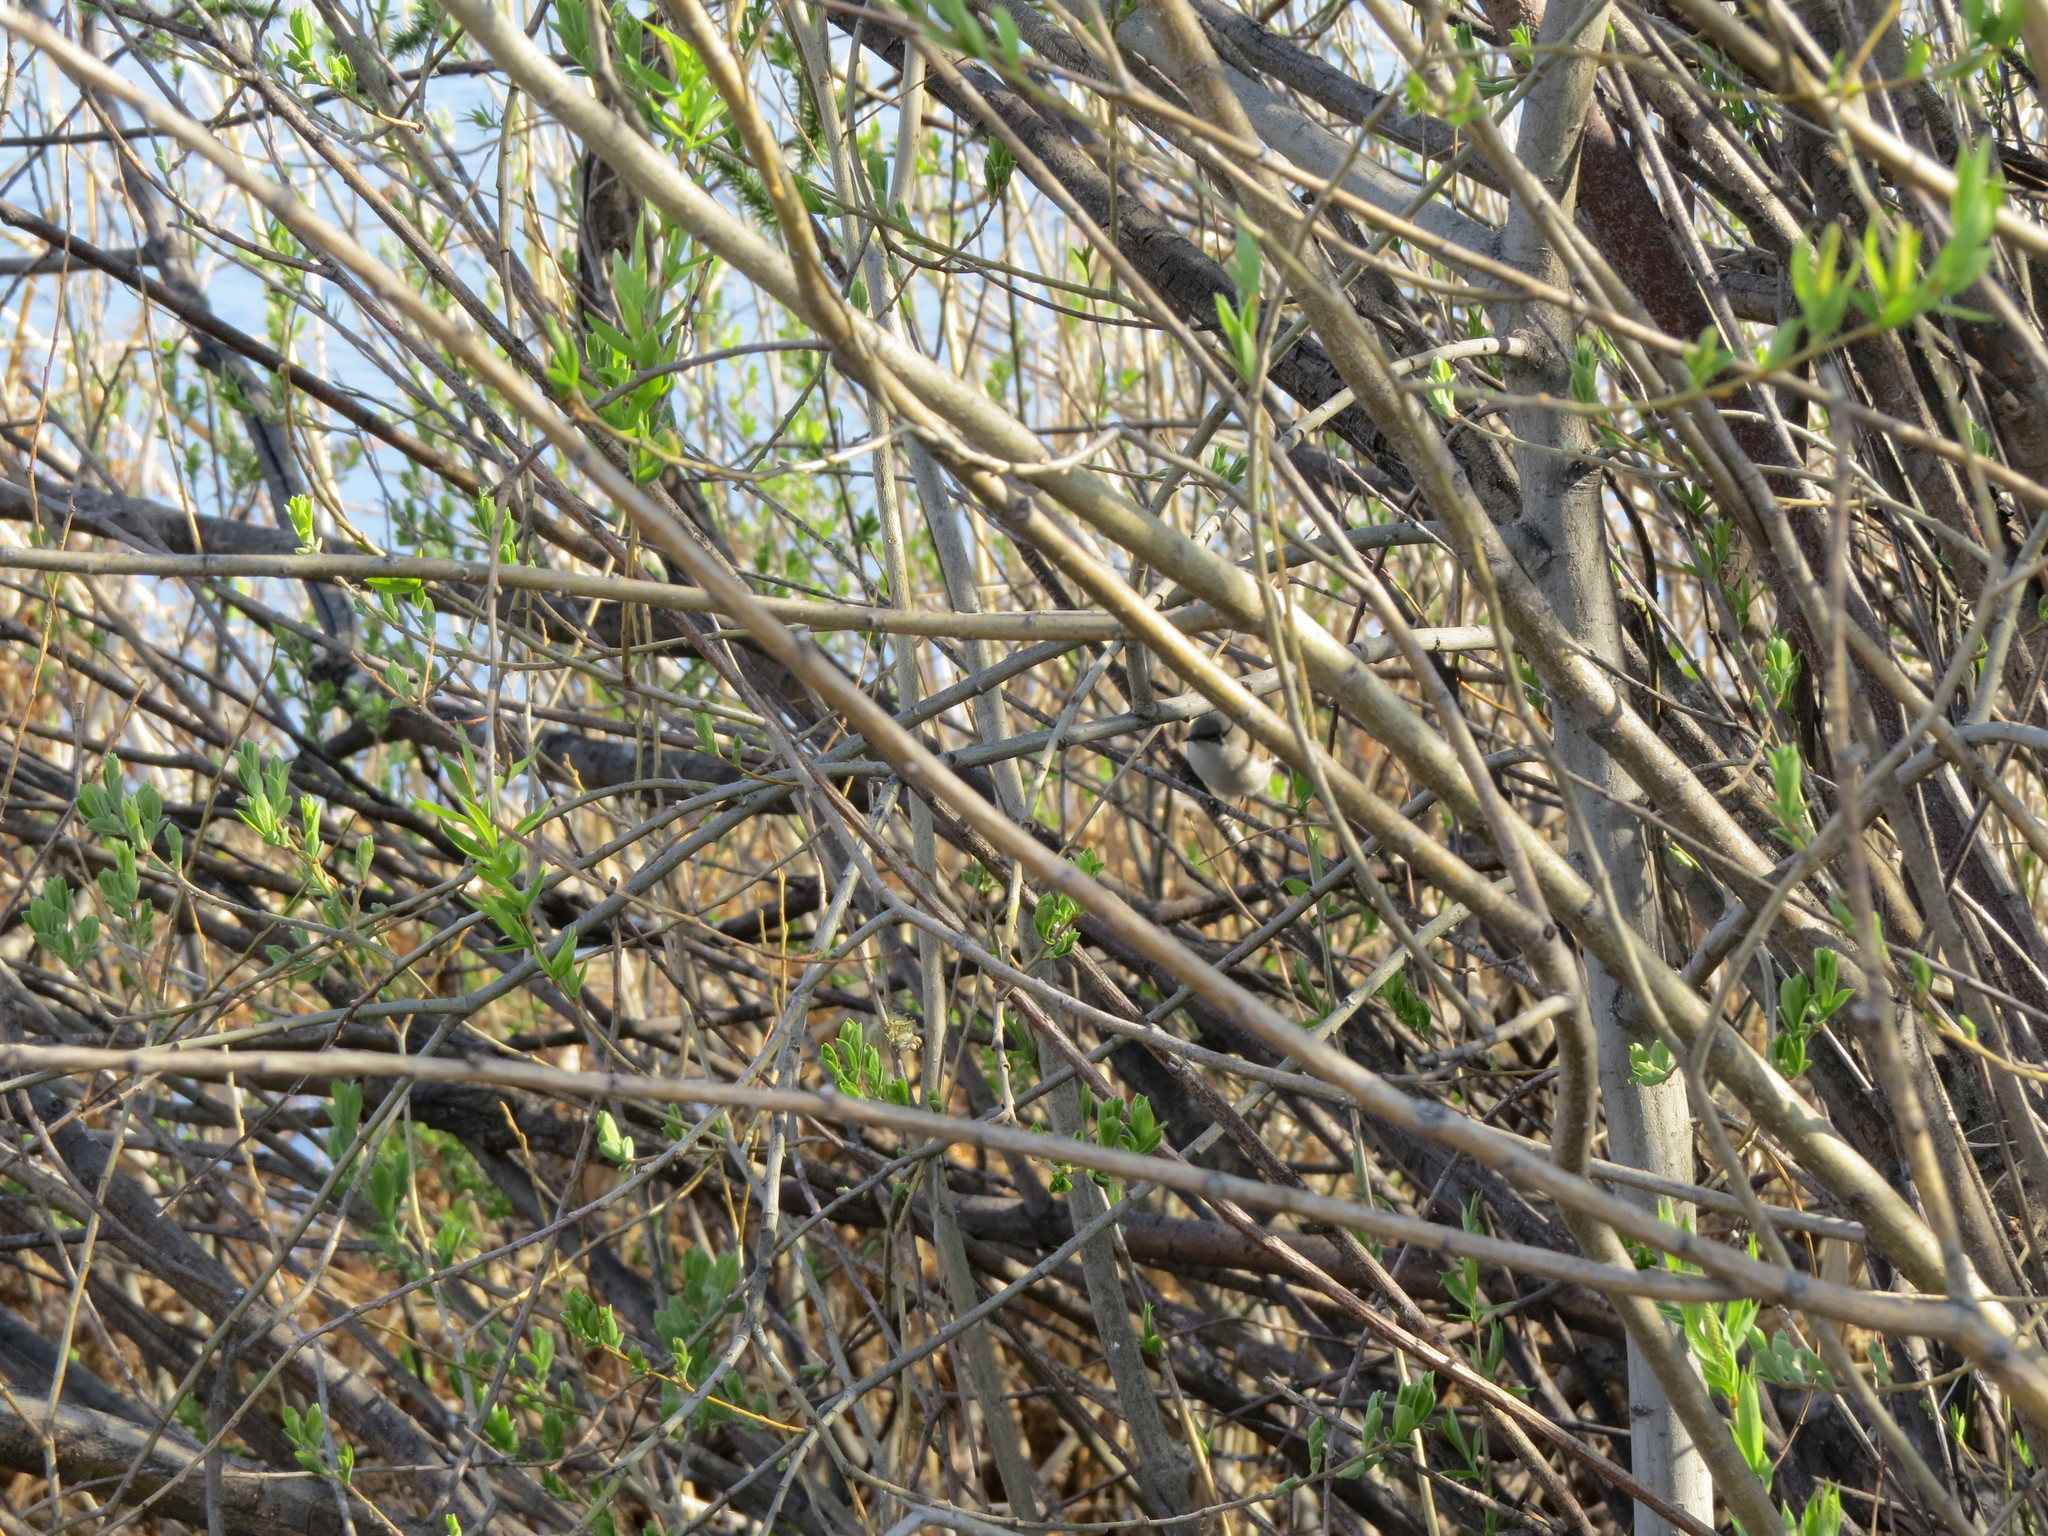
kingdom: Animalia
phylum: Chordata
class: Aves
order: Passeriformes
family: Sylviidae
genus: Sylvia
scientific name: Sylvia curruca
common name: Lesser whitethroat
